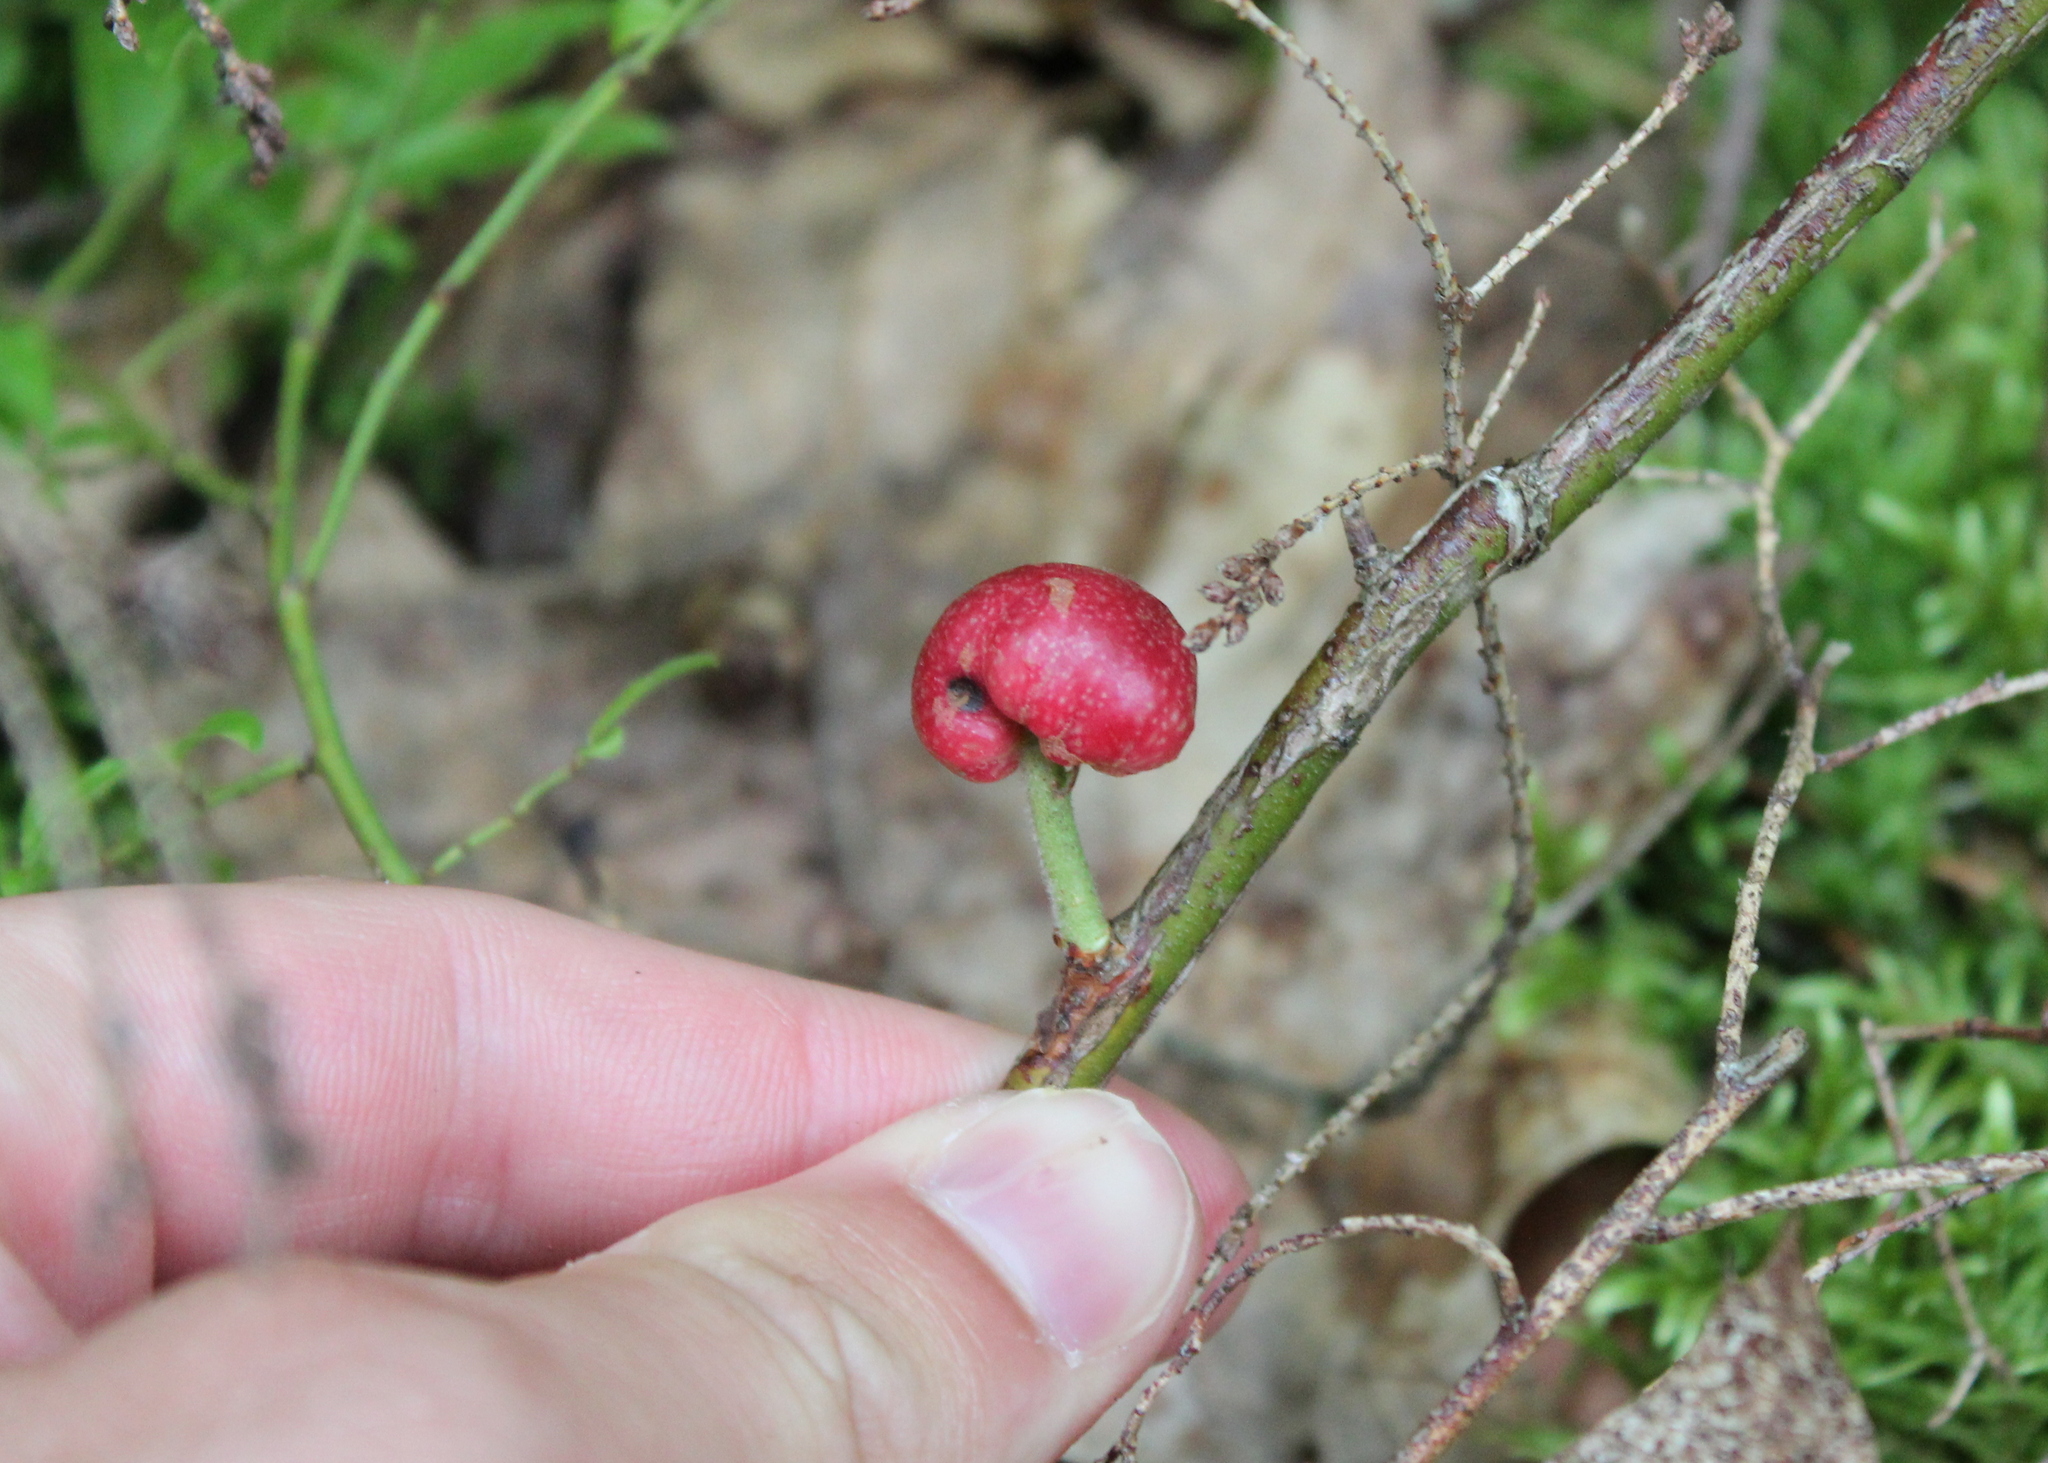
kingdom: Animalia
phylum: Arthropoda
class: Insecta
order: Hymenoptera
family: Pteromalidae
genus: Hemadas
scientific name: Hemadas nubilipennis
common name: Blueberry stem gall wasp
